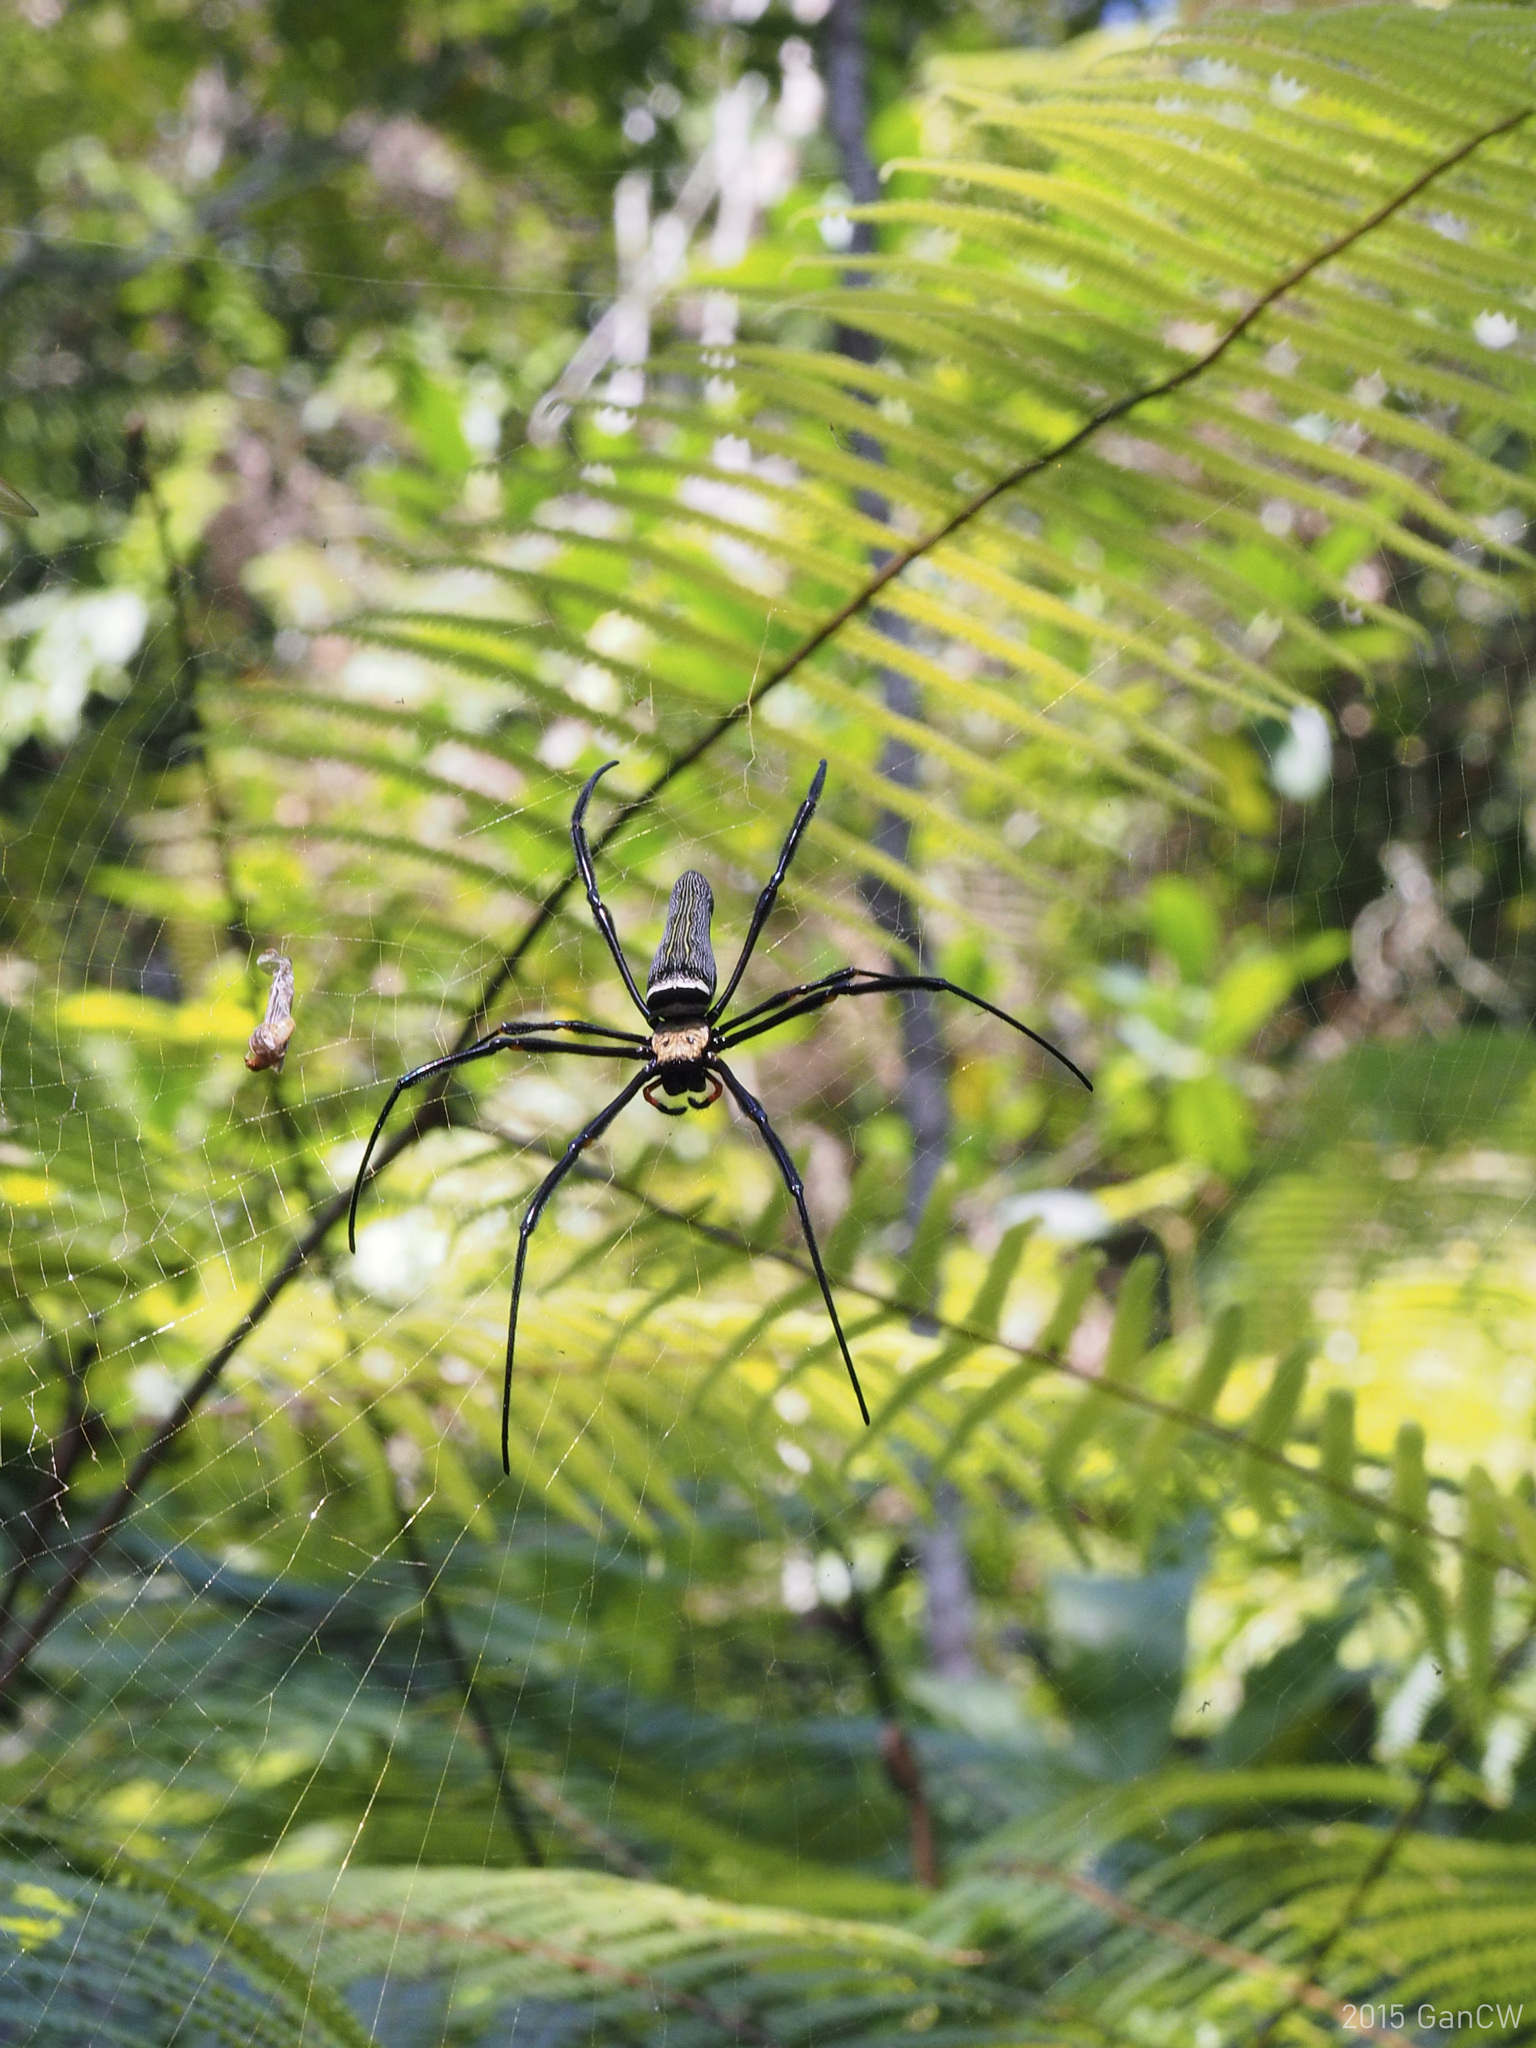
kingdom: Animalia
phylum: Arthropoda
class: Arachnida
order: Araneae
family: Araneidae
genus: Nephila
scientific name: Nephila pilipes
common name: Giant golden orb weaver
